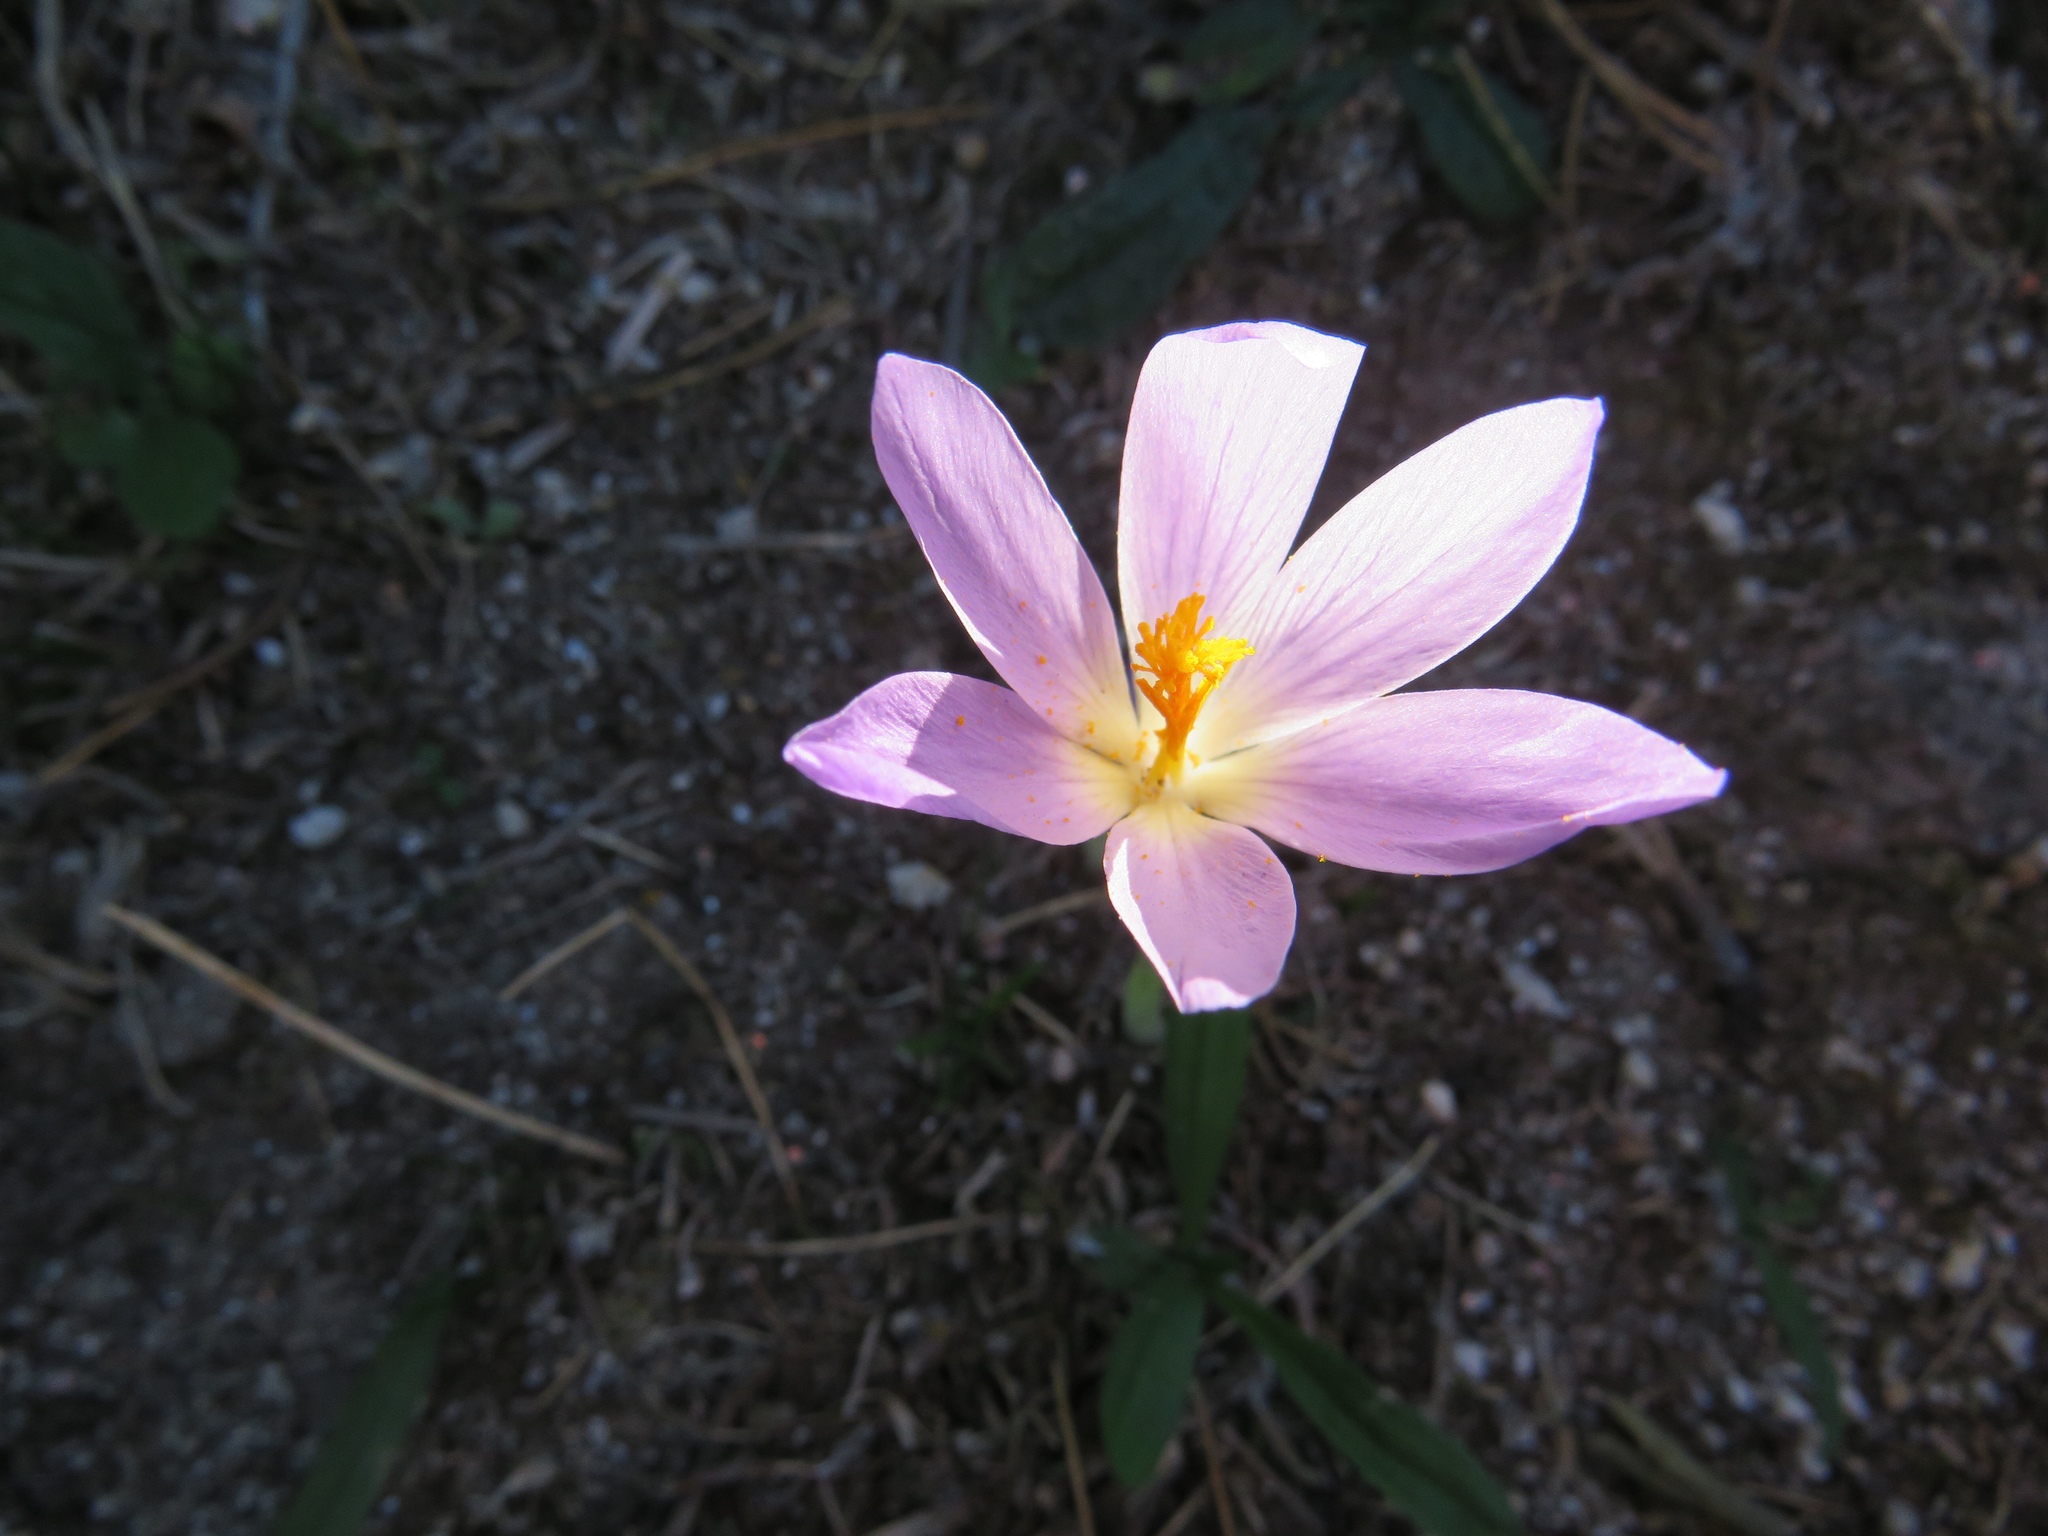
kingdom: Plantae
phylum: Tracheophyta
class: Liliopsida
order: Asparagales
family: Iridaceae
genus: Crocus
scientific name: Crocus serotinus
